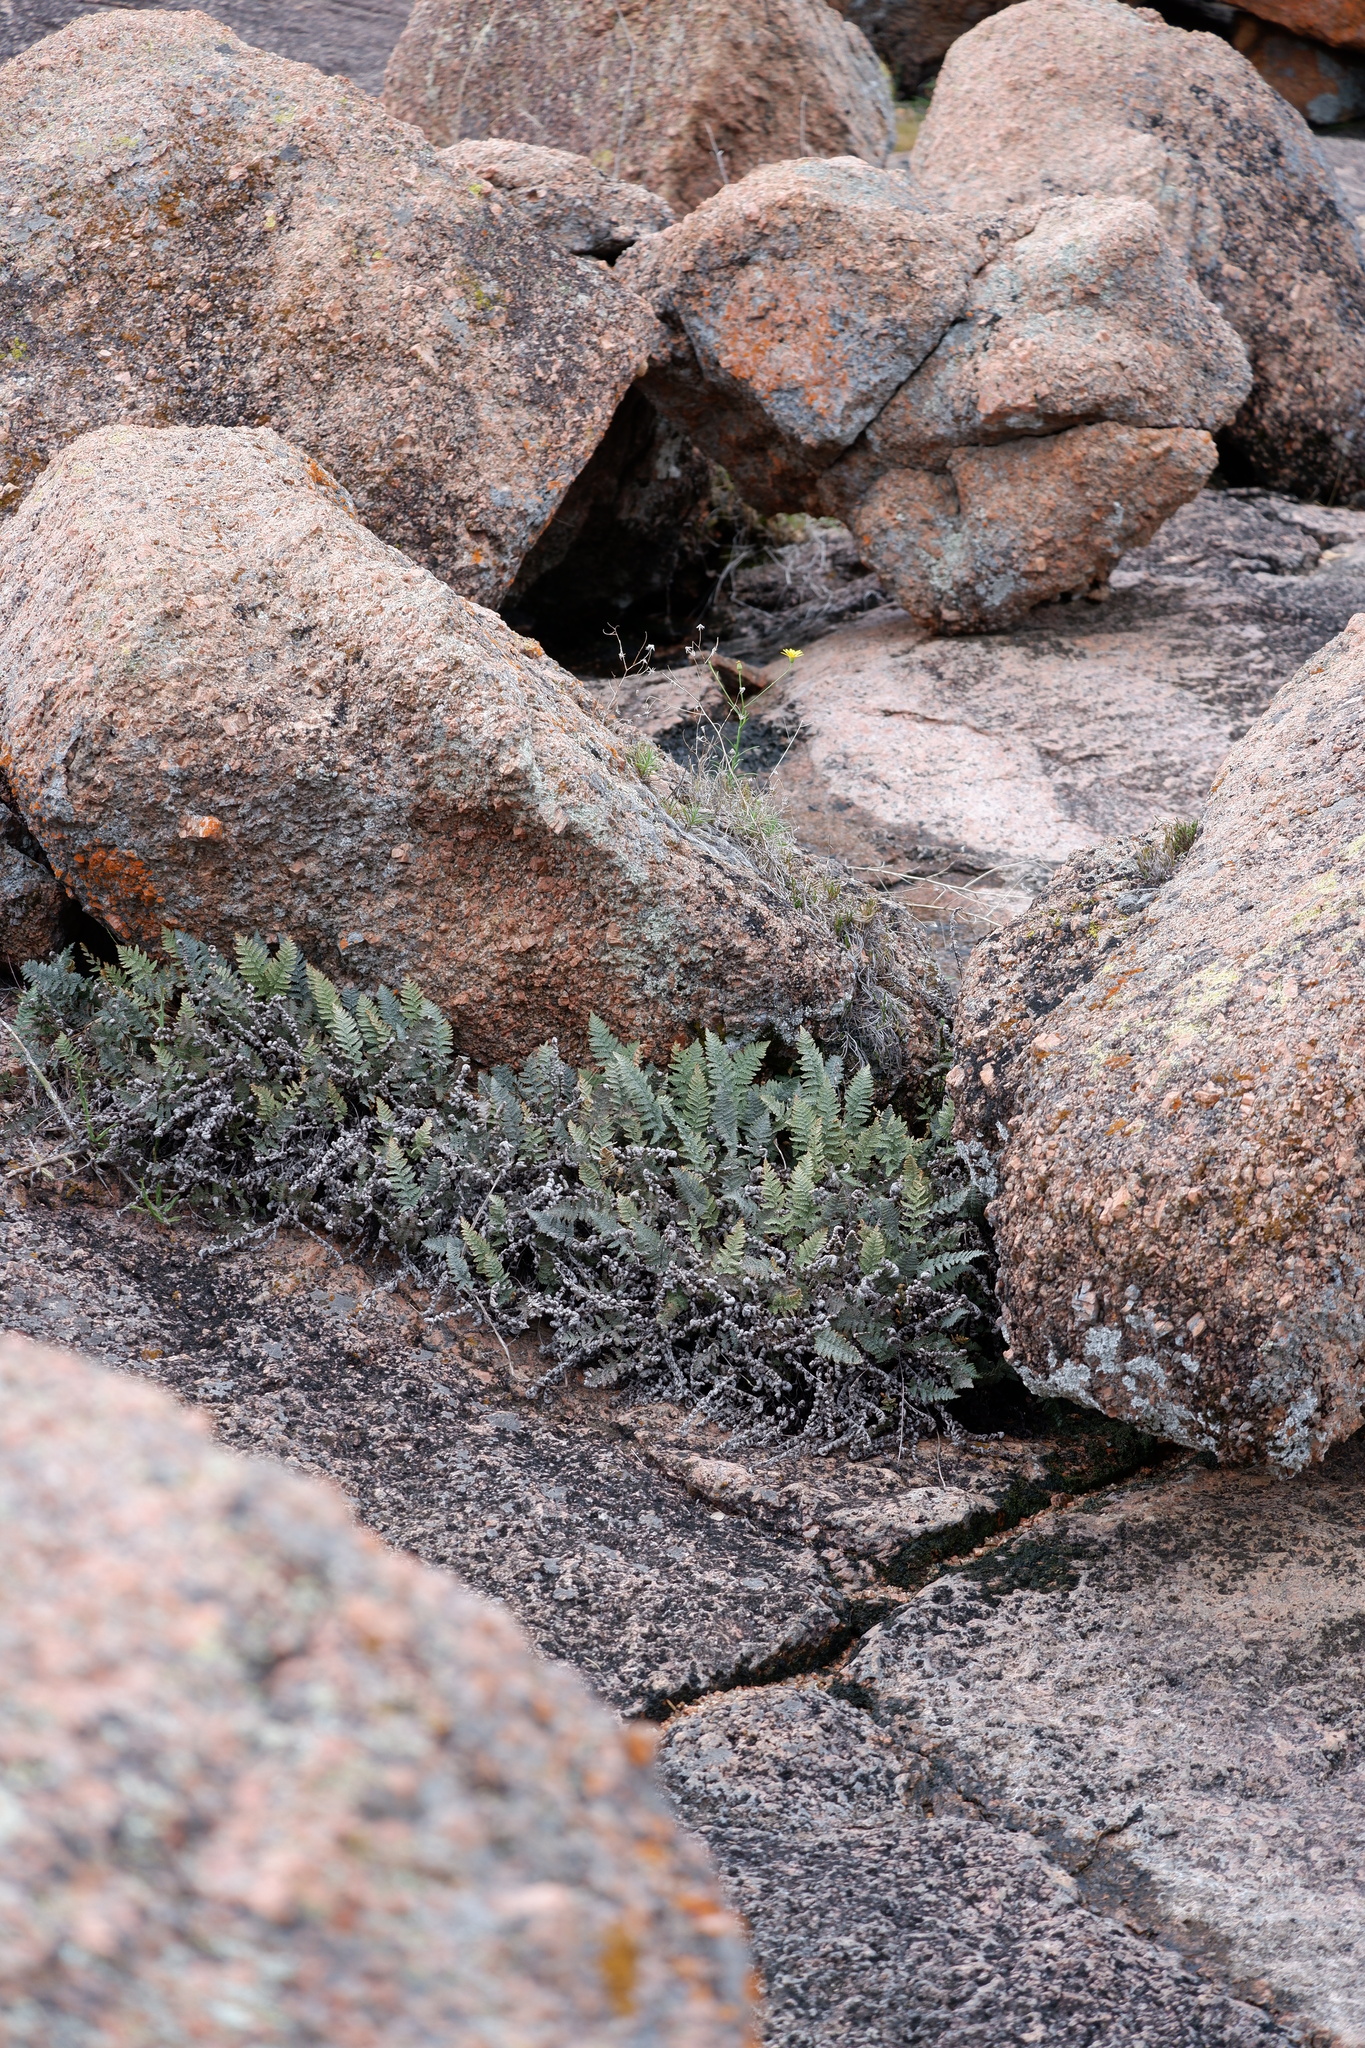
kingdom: Plantae
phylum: Tracheophyta
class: Polypodiopsida
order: Polypodiales
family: Pteridaceae
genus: Myriopteris
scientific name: Myriopteris lindheimeri
